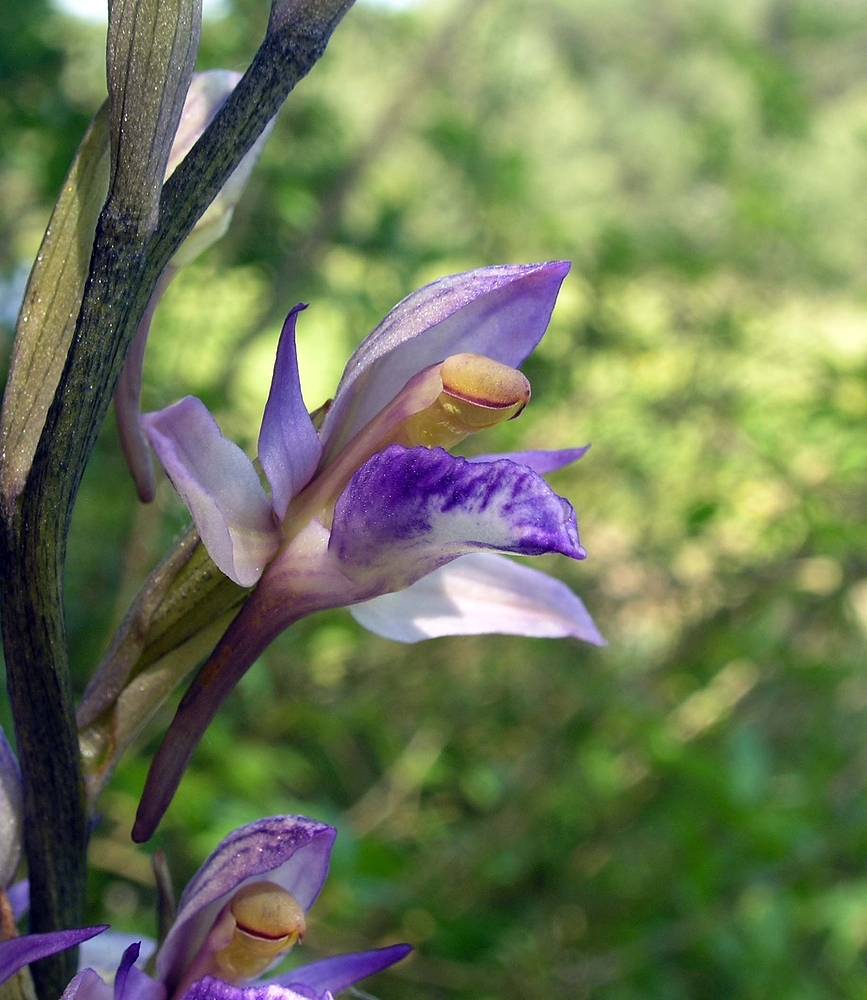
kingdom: Plantae
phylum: Tracheophyta
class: Liliopsida
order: Asparagales
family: Orchidaceae
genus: Limodorum
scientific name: Limodorum abortivum
